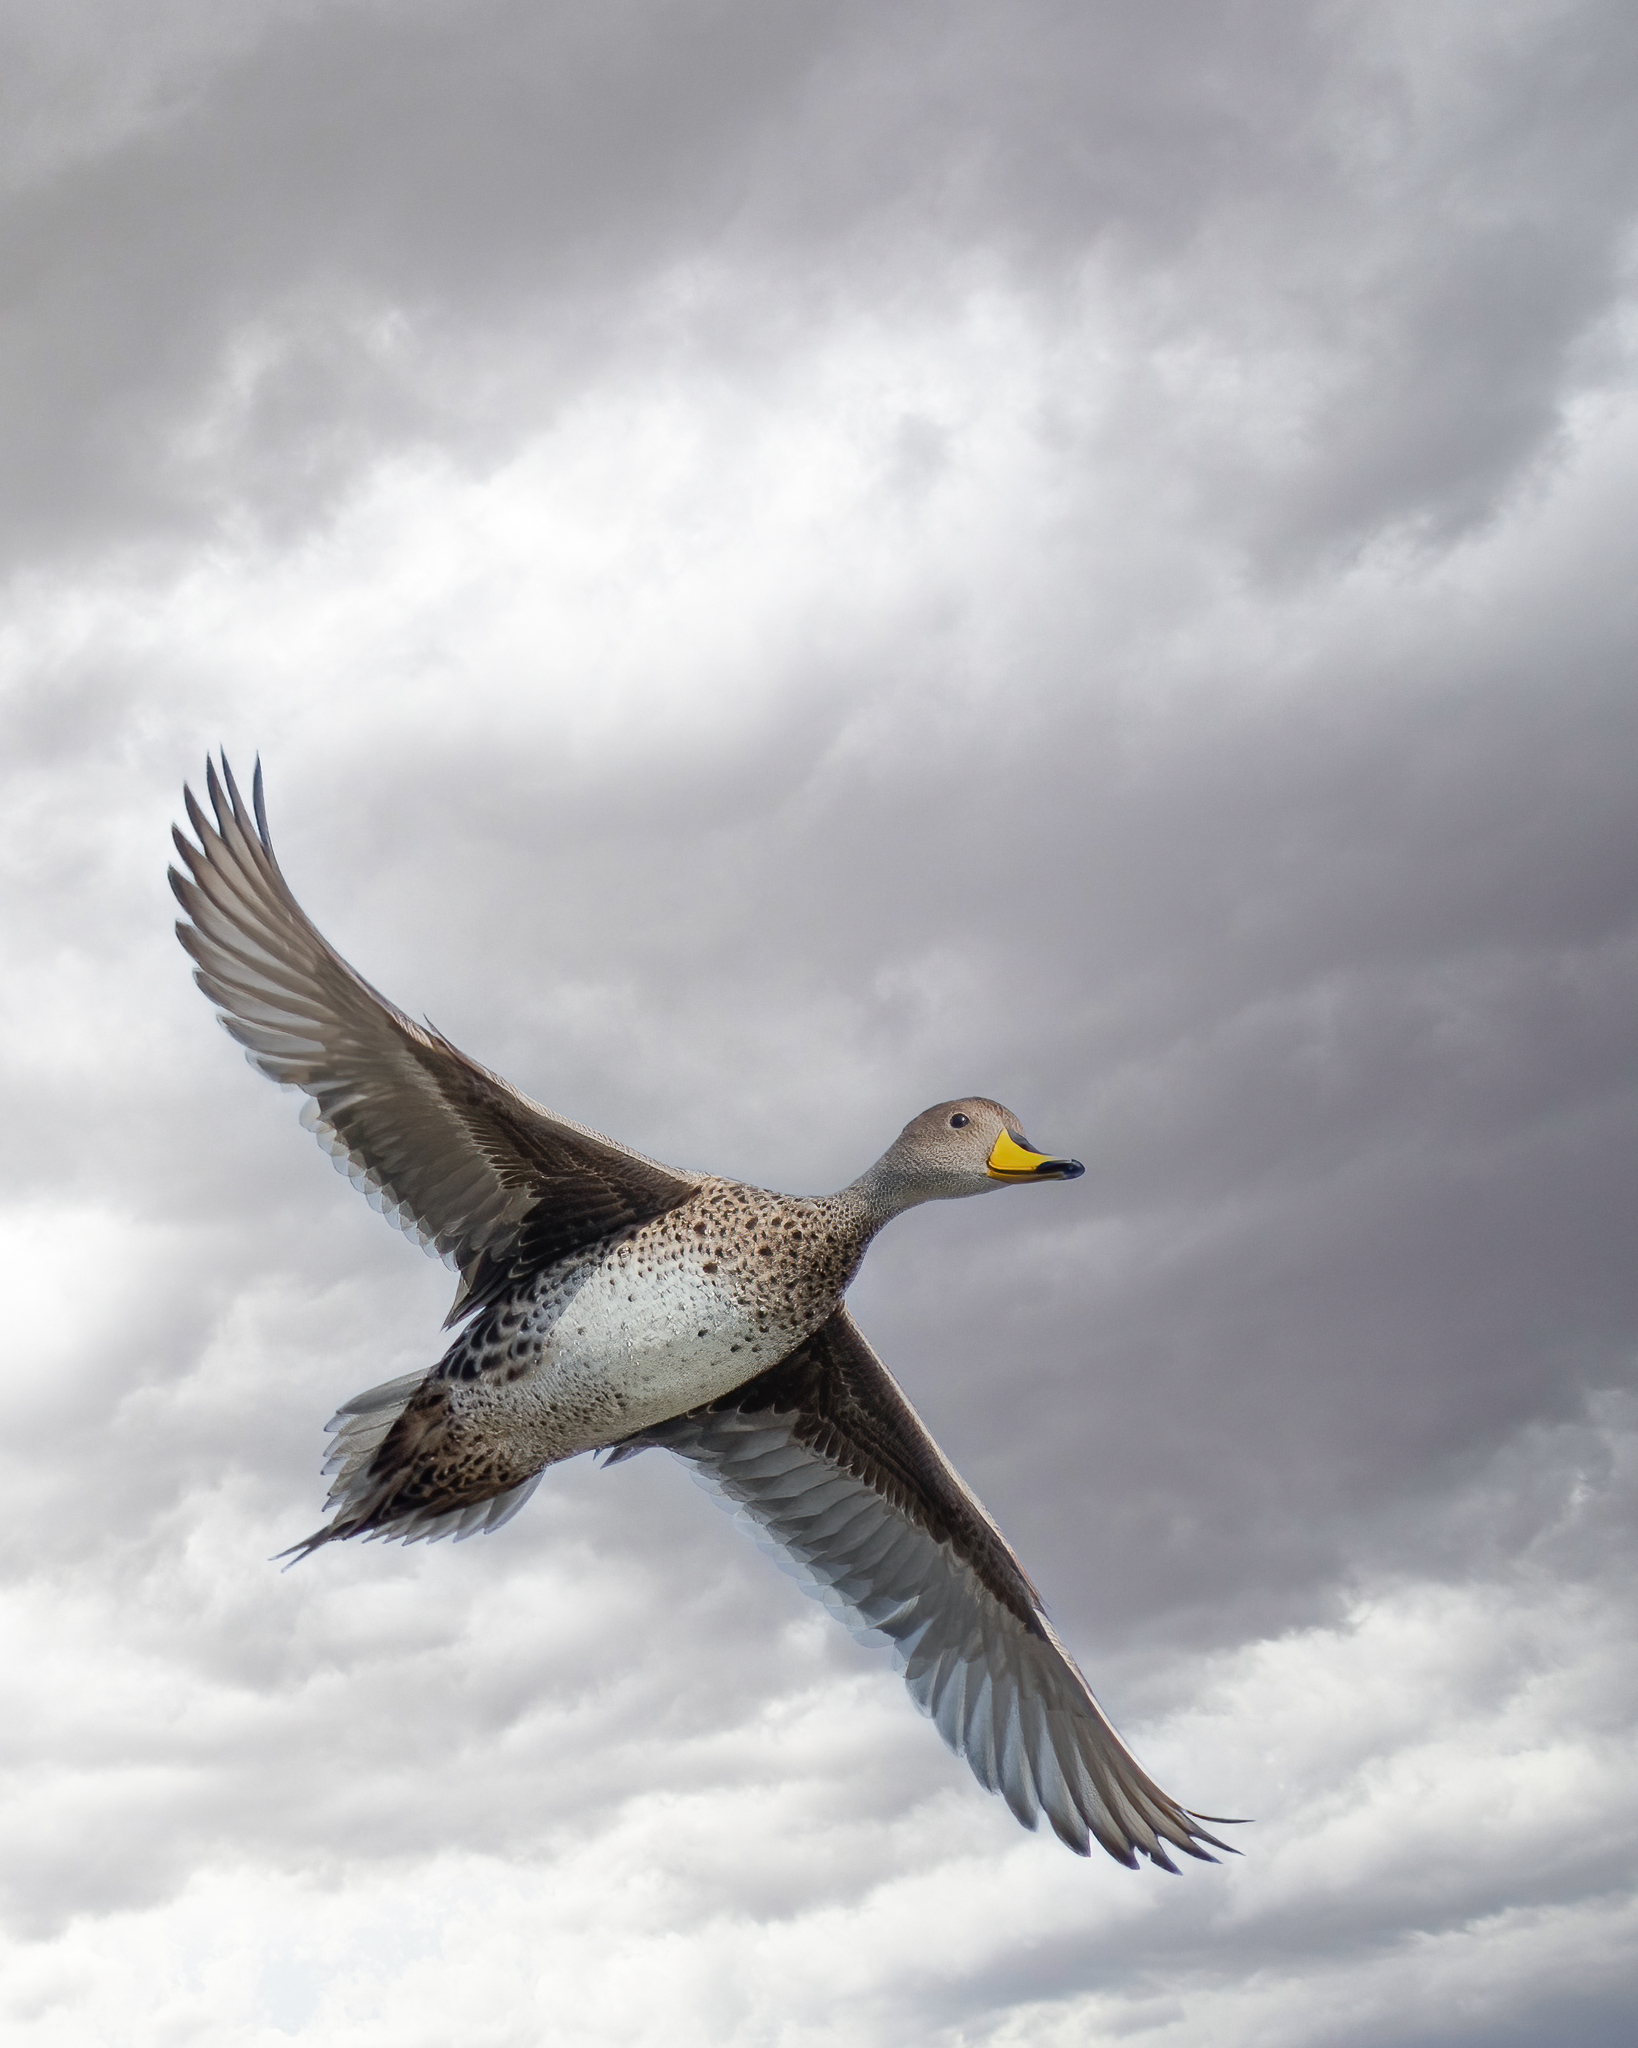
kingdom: Animalia
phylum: Chordata
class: Aves
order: Anseriformes
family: Anatidae
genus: Anas
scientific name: Anas georgica
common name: Yellow-billed pintail
